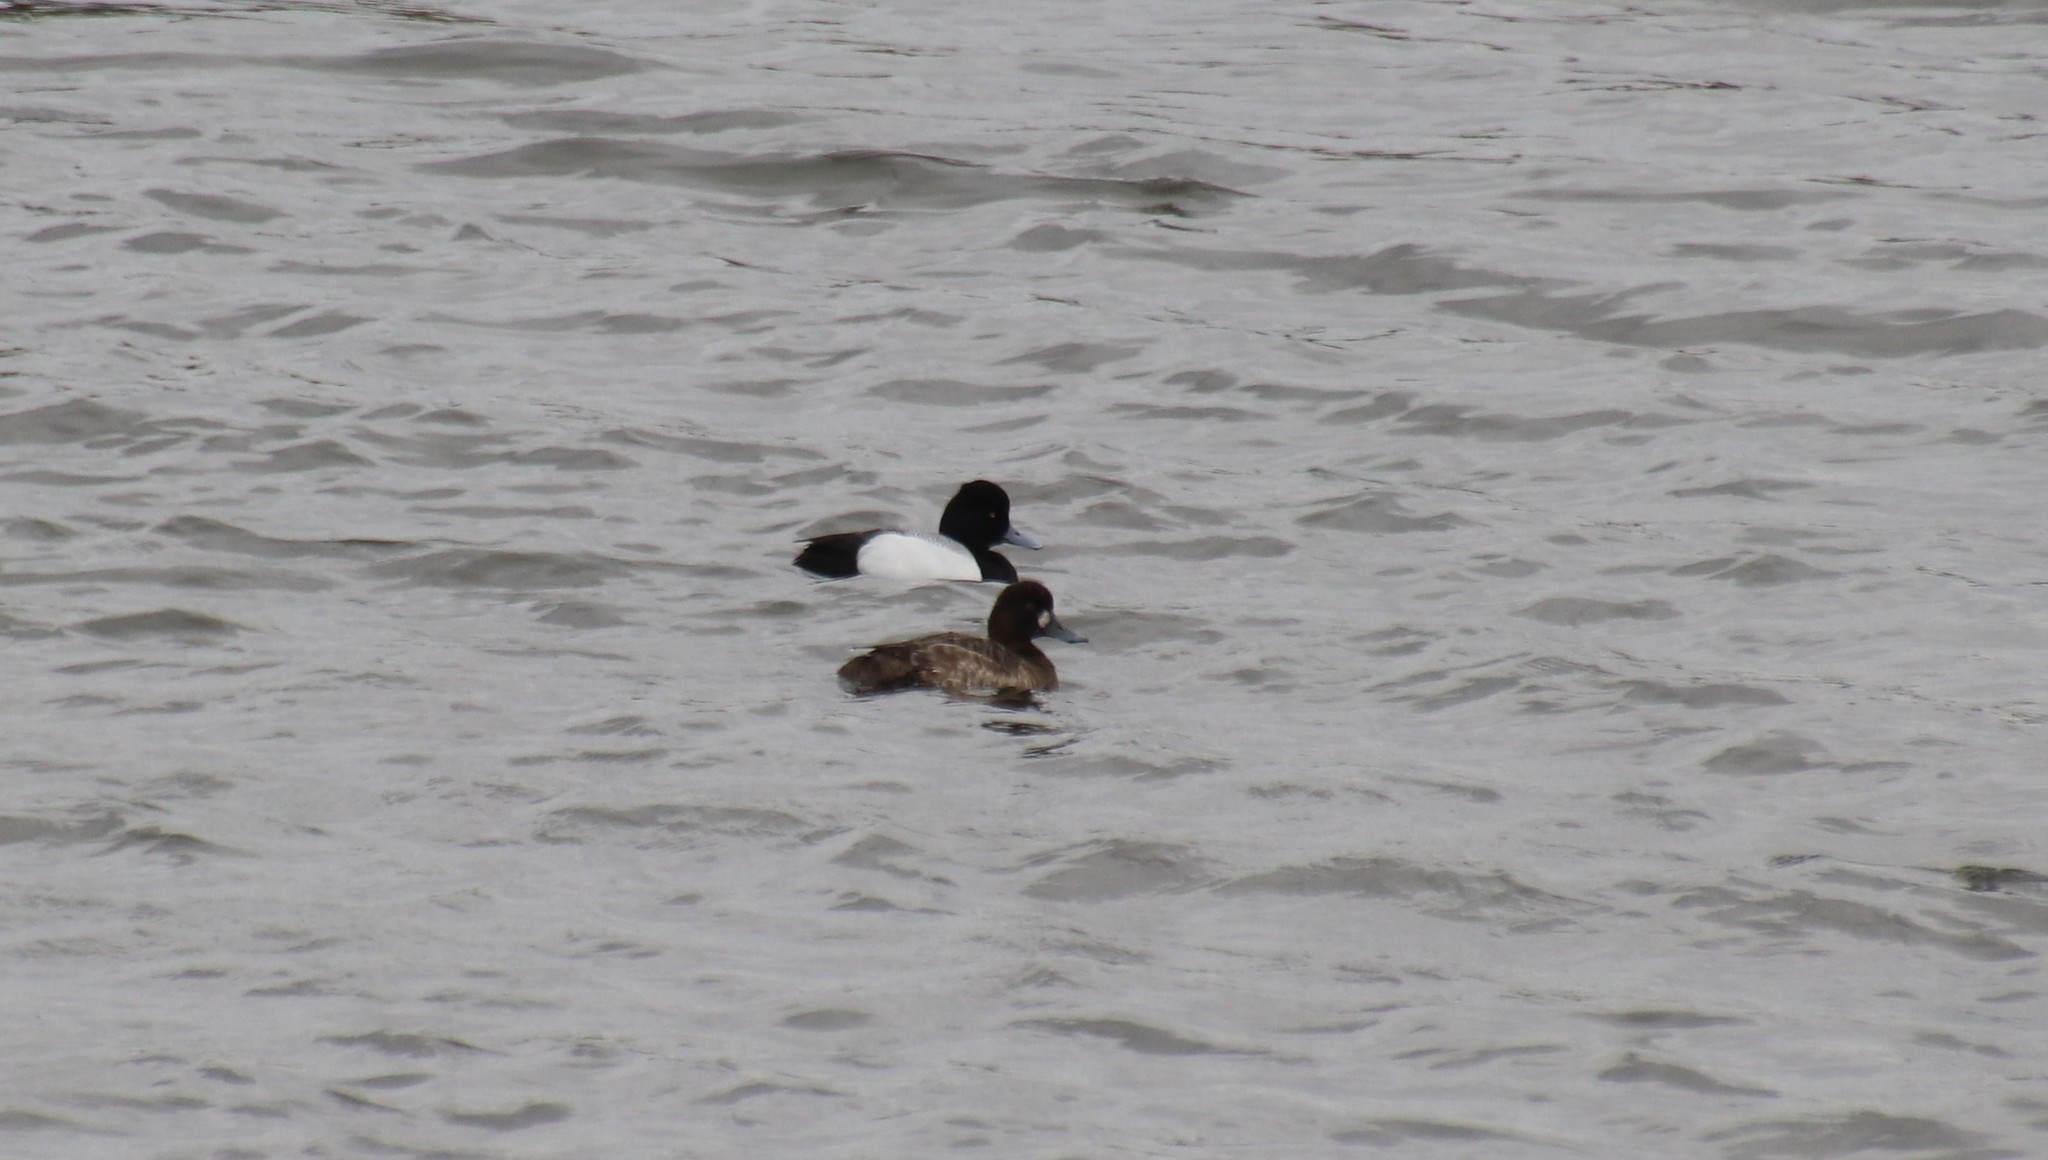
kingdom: Animalia
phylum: Chordata
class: Aves
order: Anseriformes
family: Anatidae
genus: Aythya
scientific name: Aythya marila
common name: Greater scaup
